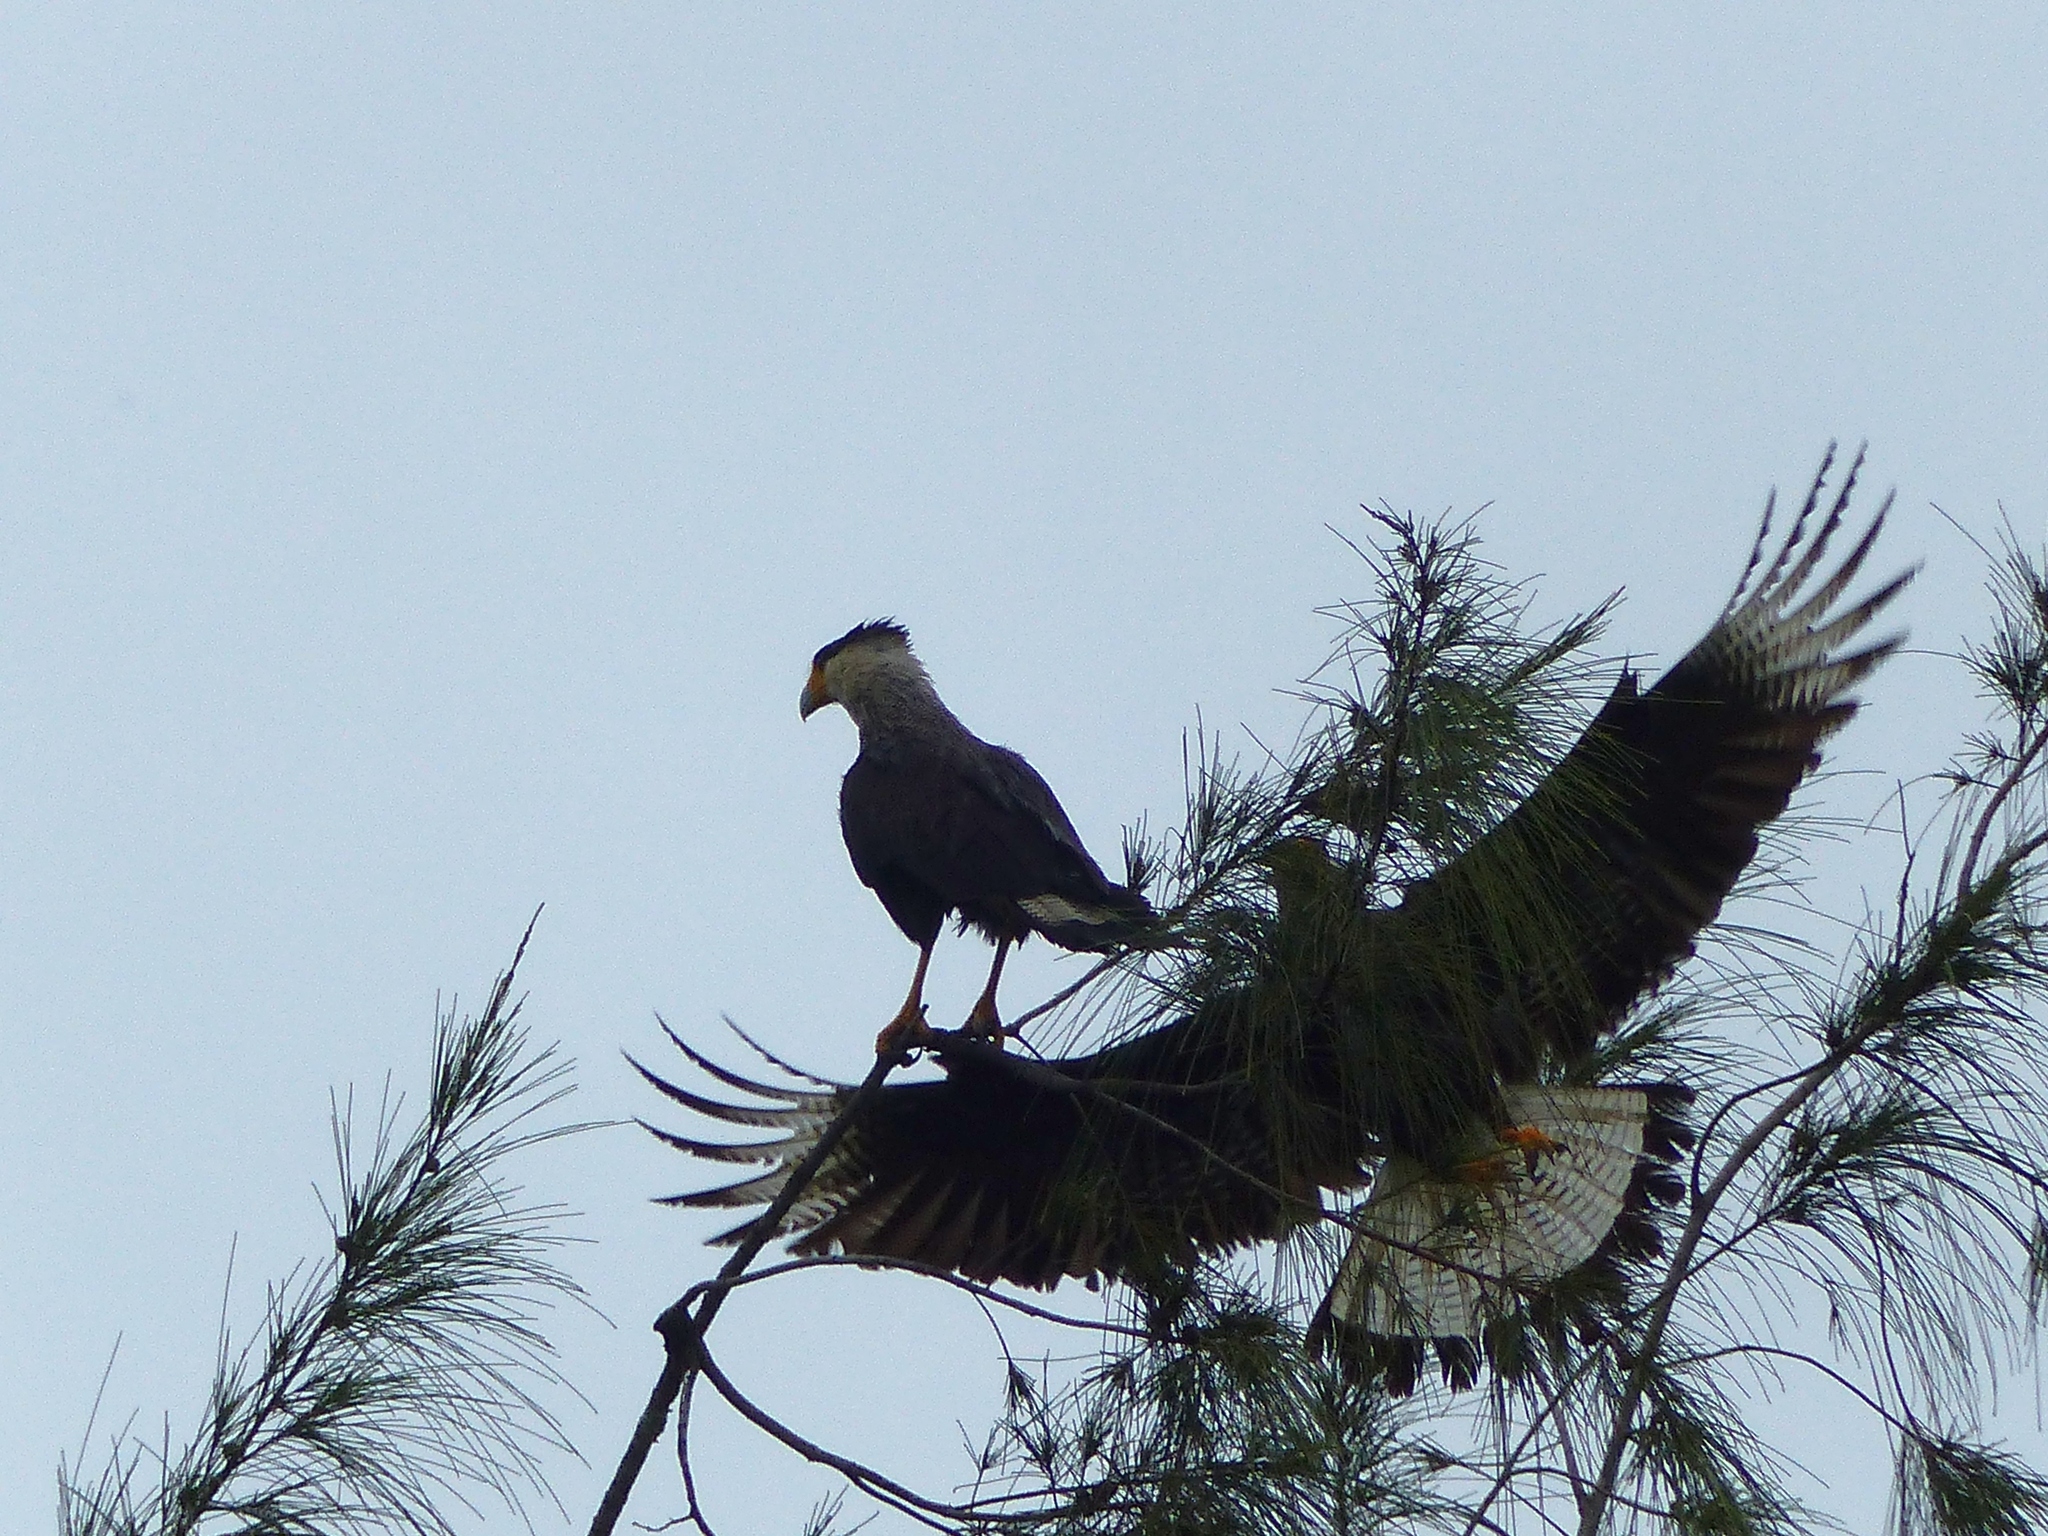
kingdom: Animalia
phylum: Chordata
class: Aves
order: Falconiformes
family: Falconidae
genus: Caracara
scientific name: Caracara plancus
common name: Southern caracara
